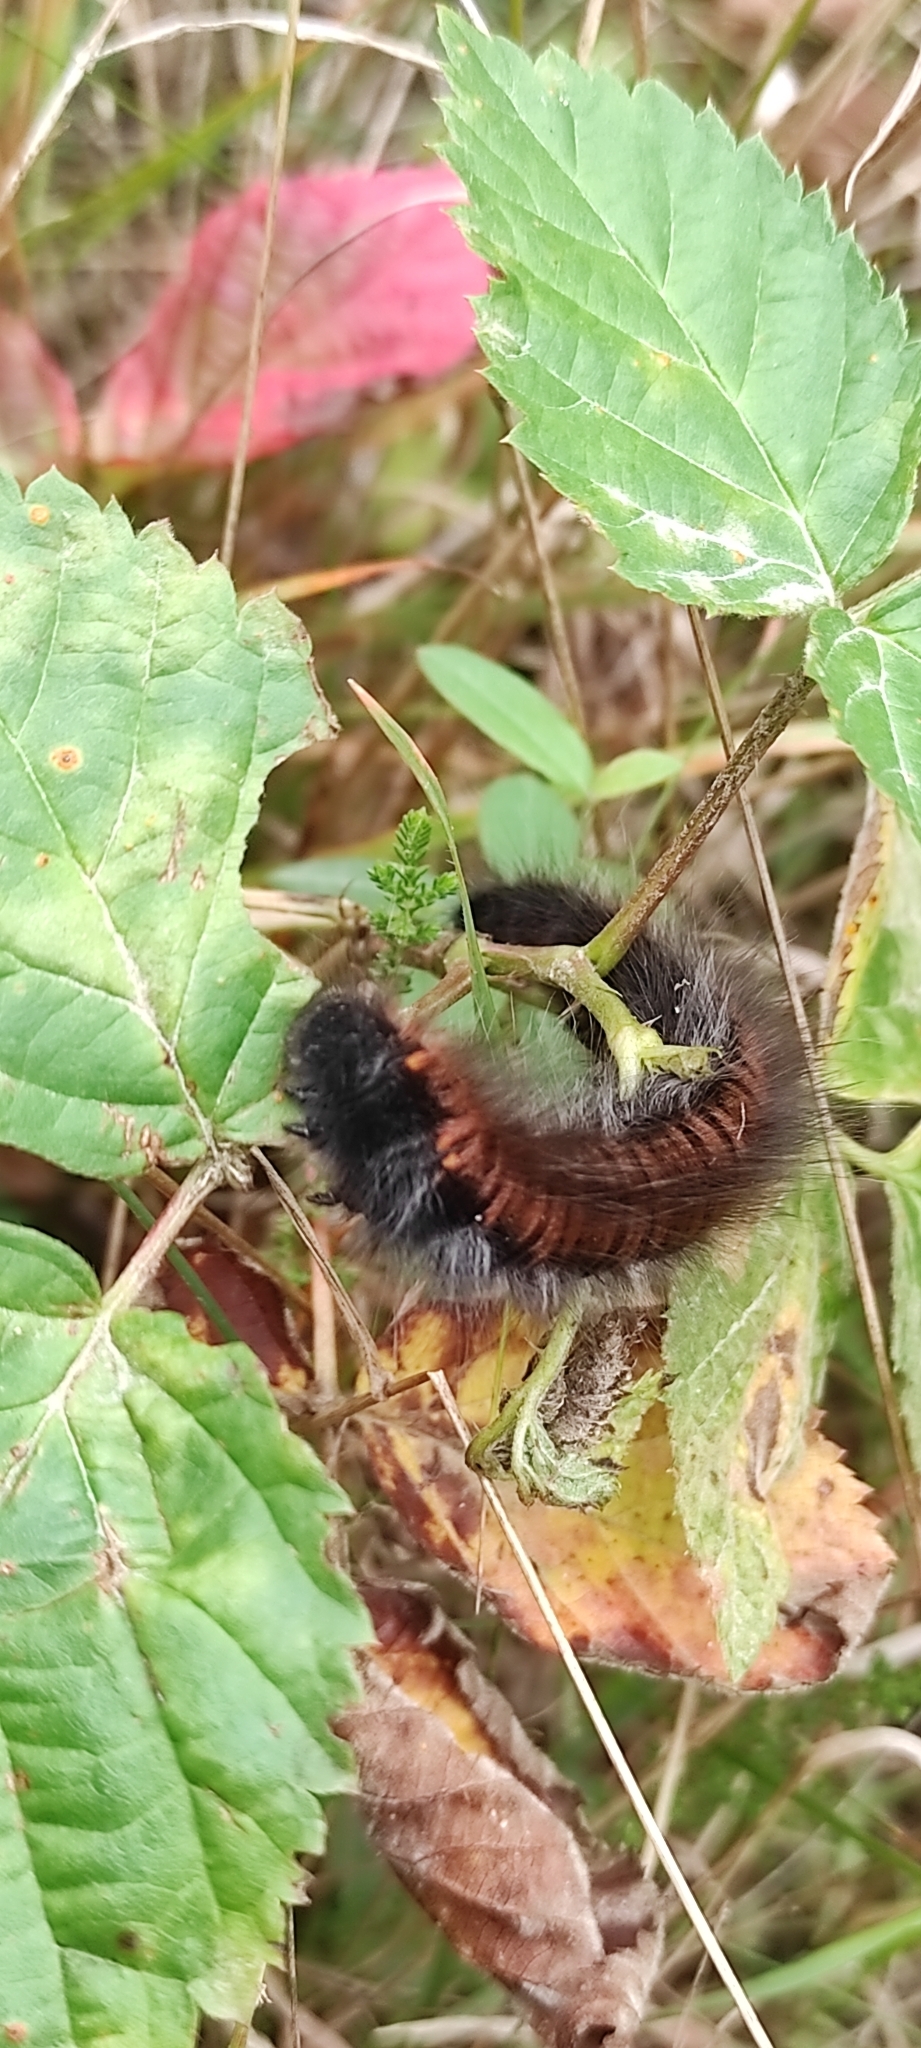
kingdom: Animalia
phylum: Arthropoda
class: Insecta
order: Lepidoptera
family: Lasiocampidae
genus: Macrothylacia
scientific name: Macrothylacia rubi
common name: Fox moth
